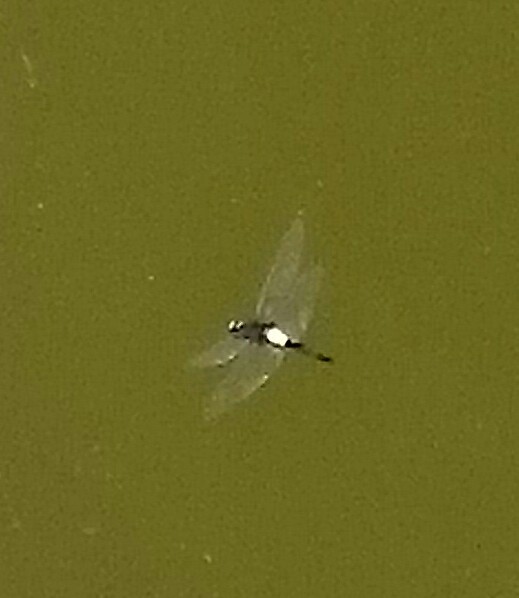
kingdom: Animalia
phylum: Arthropoda
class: Insecta
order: Odonata
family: Libellulidae
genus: Pseudothemis
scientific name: Pseudothemis jorina
